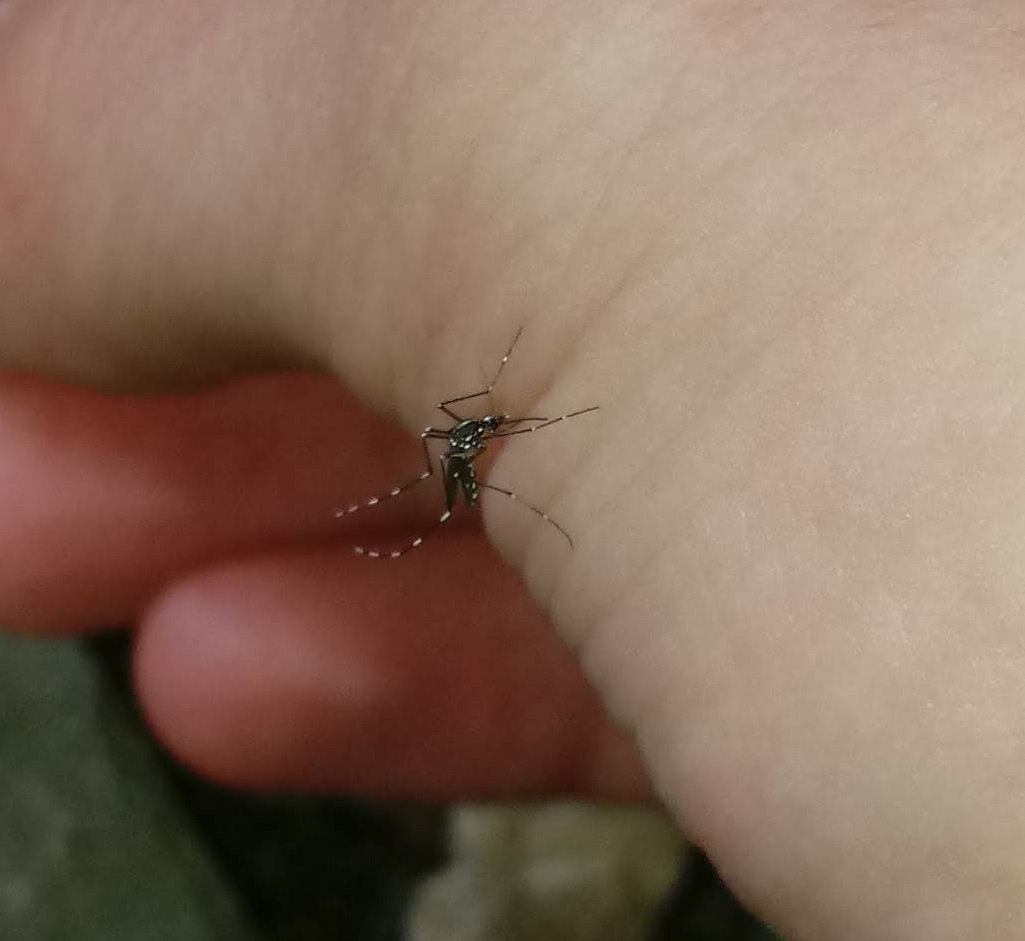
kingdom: Animalia
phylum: Arthropoda
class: Insecta
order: Diptera
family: Culicidae
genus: Aedes
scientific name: Aedes albopictus
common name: Tiger mosquito
